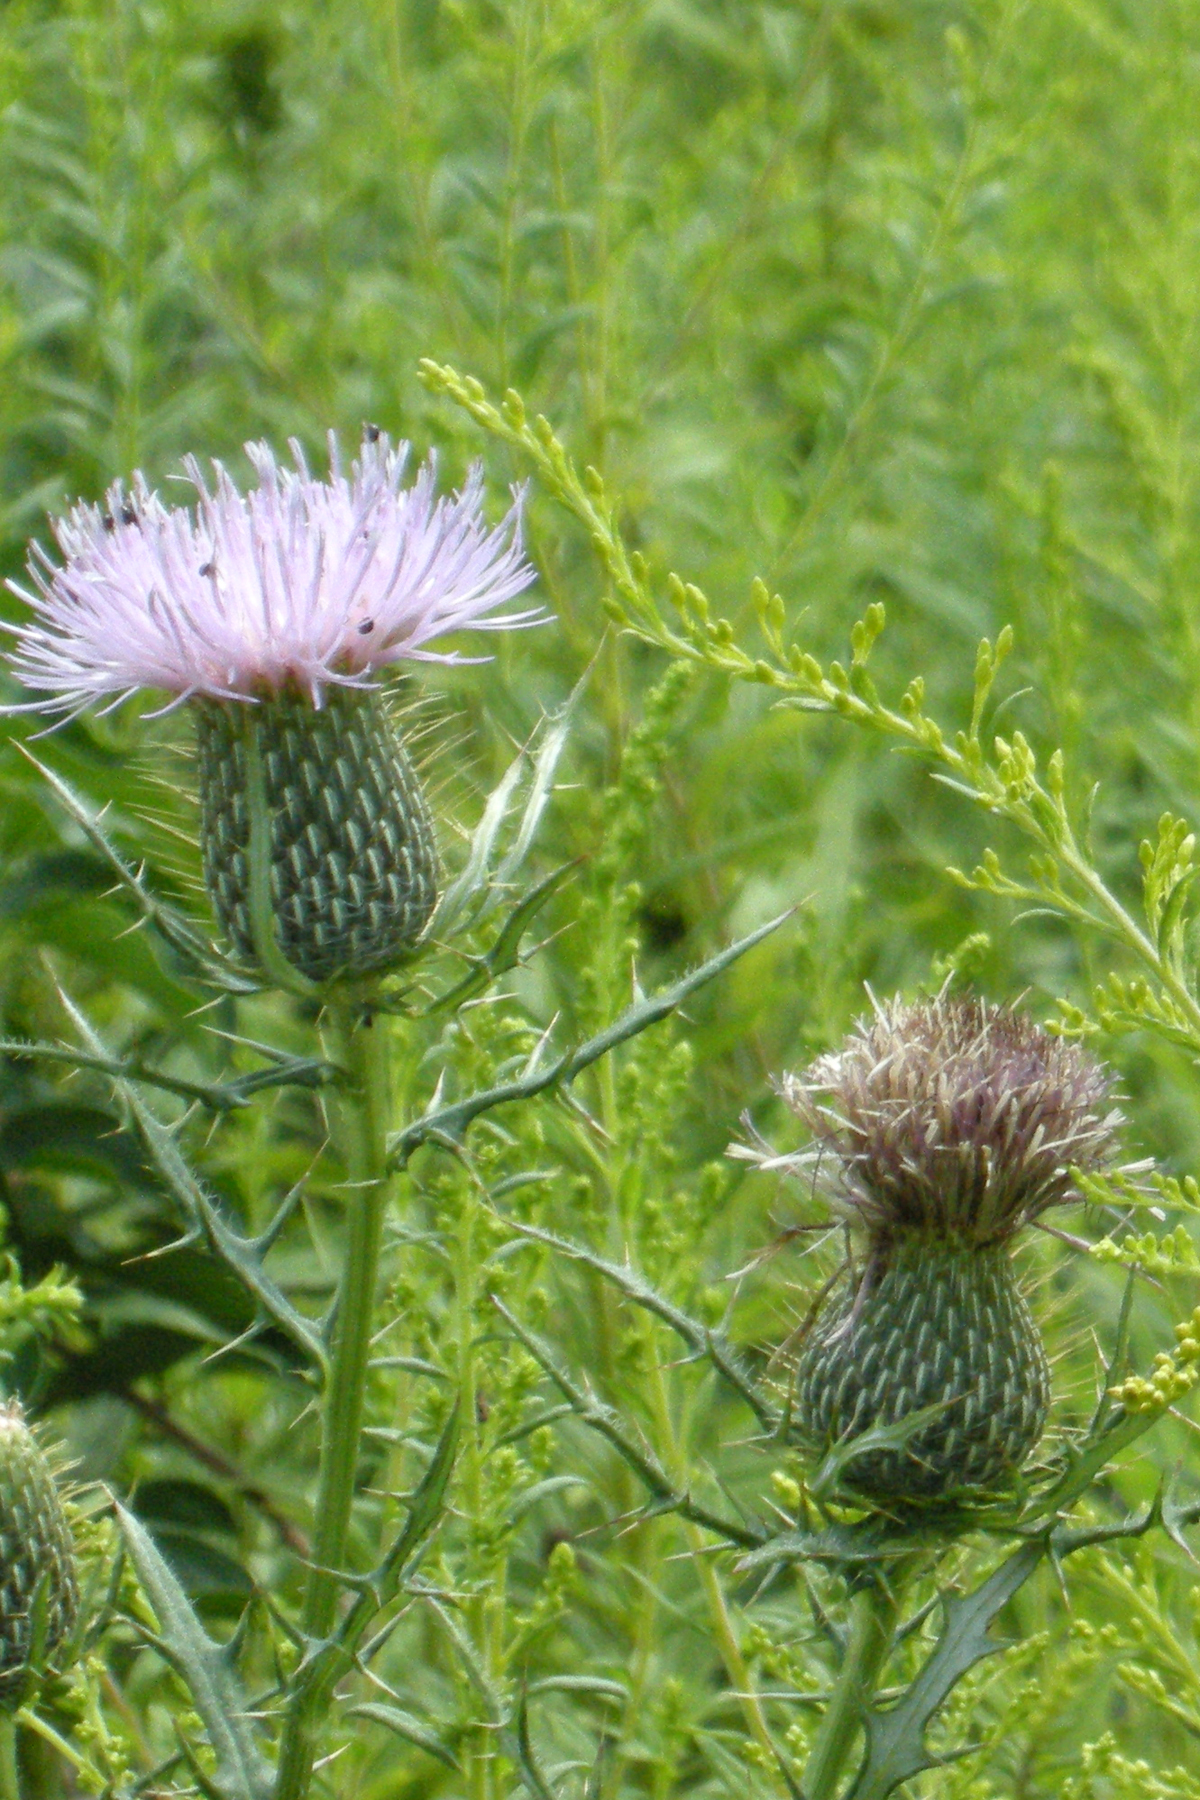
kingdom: Plantae
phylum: Tracheophyta
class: Magnoliopsida
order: Asterales
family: Asteraceae
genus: Cirsium
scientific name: Cirsium discolor
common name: Field thistle
